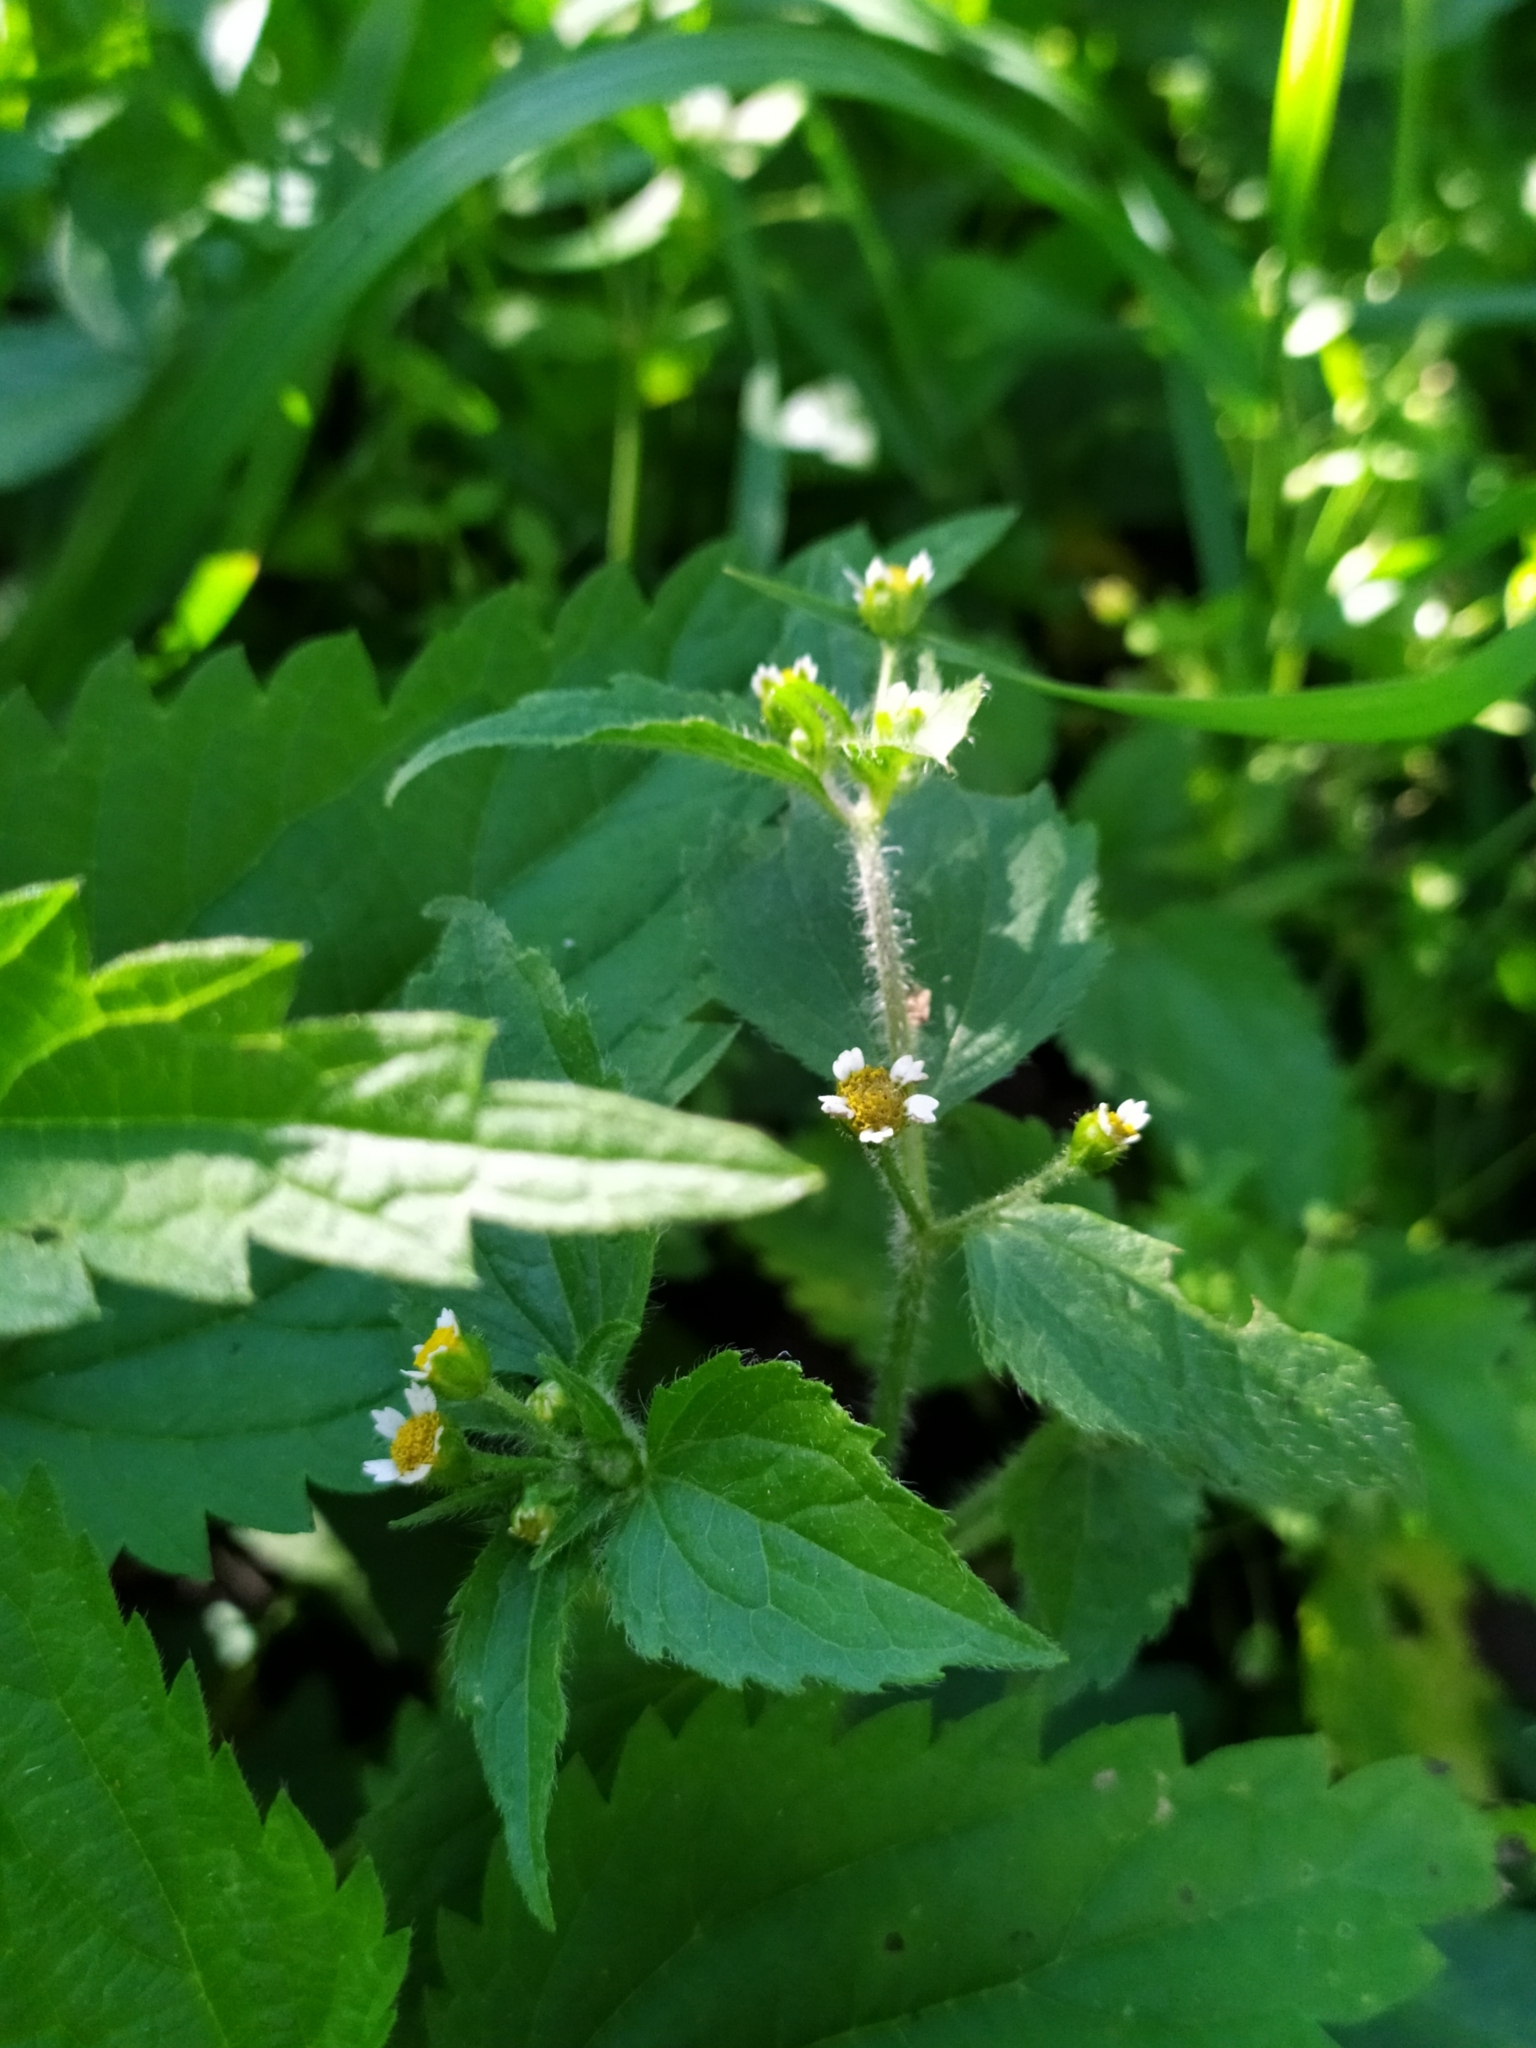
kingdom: Plantae
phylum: Tracheophyta
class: Magnoliopsida
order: Asterales
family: Asteraceae
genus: Galinsoga
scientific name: Galinsoga quadriradiata
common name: Shaggy soldier
